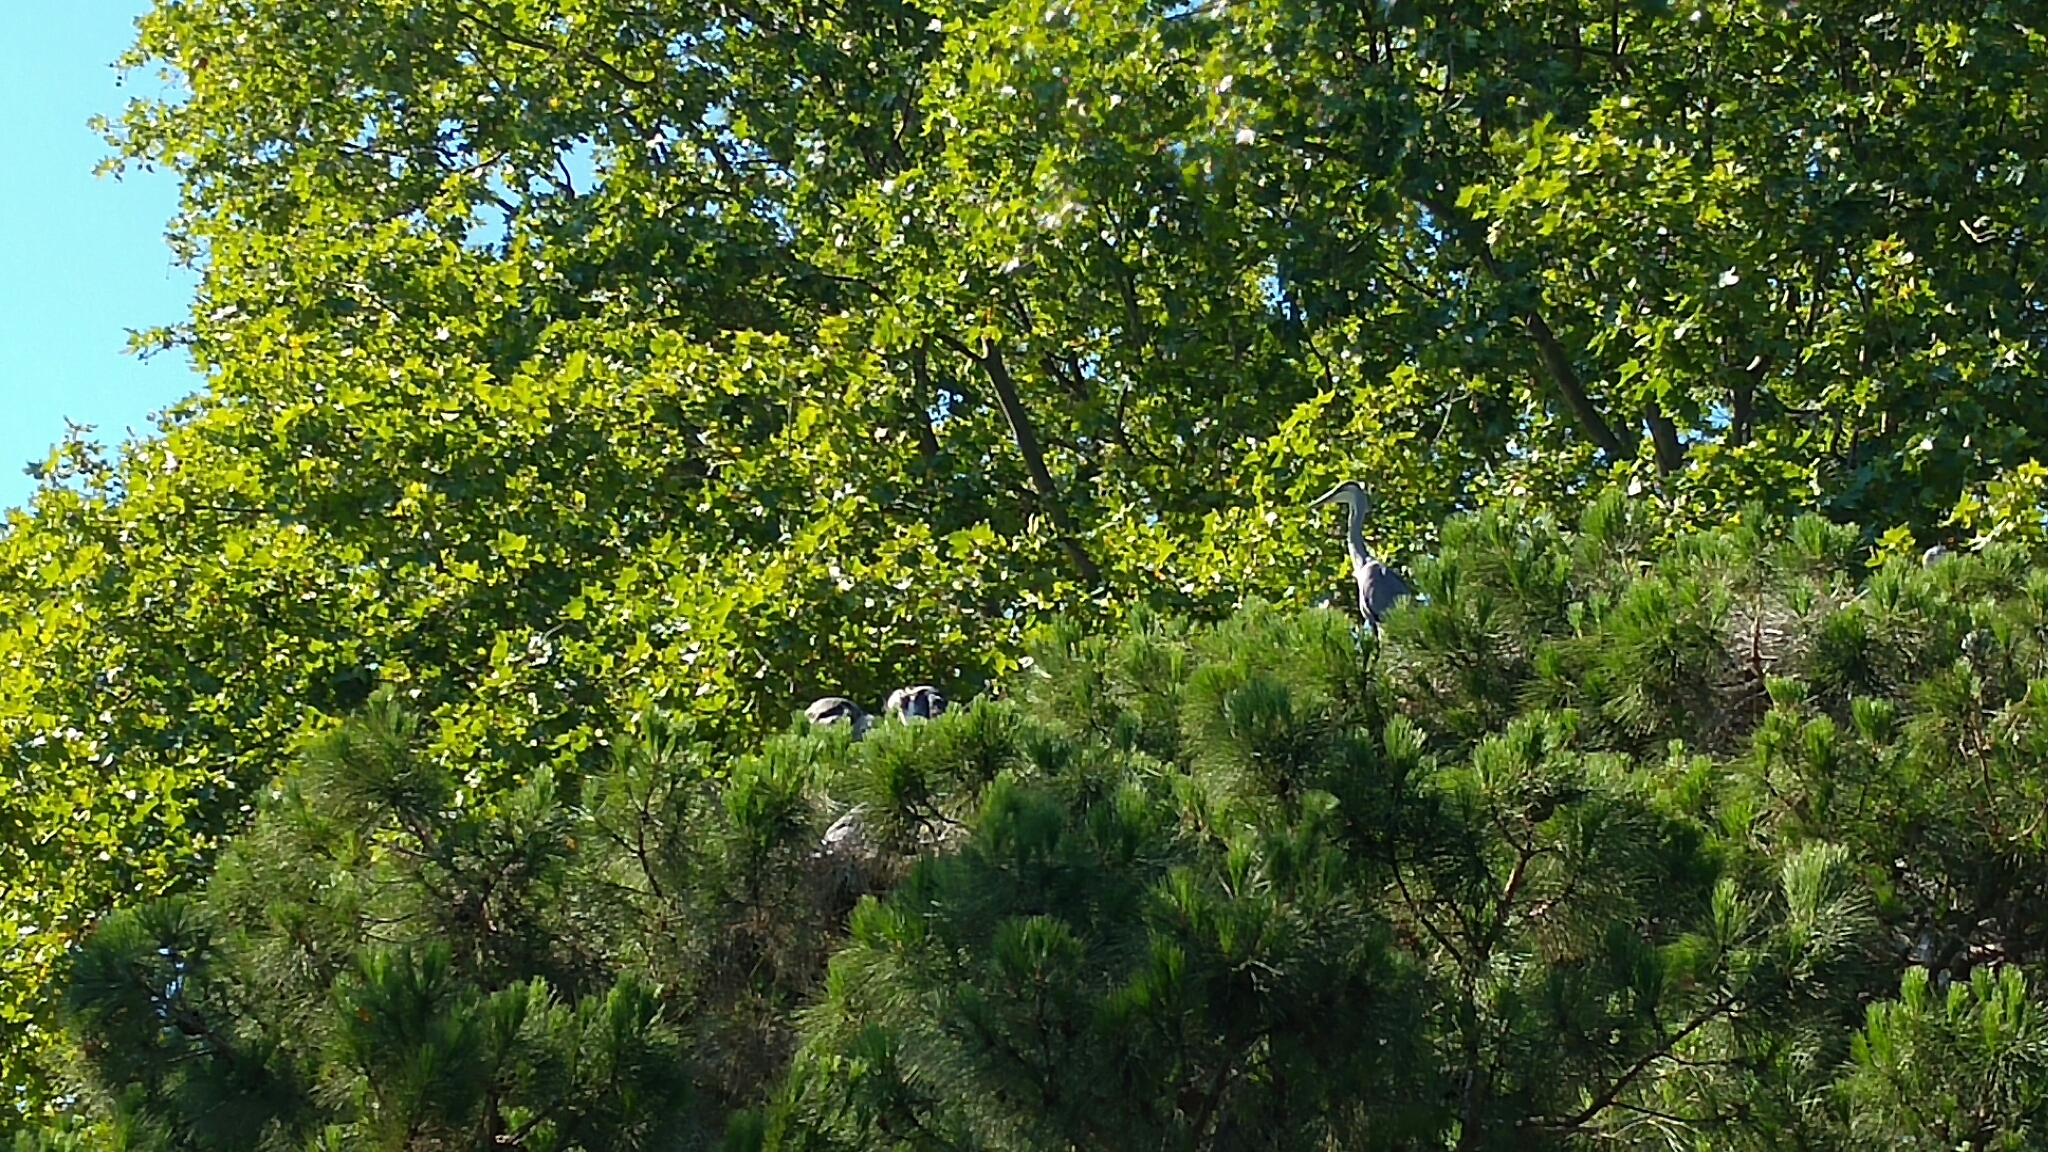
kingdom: Animalia
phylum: Chordata
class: Aves
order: Pelecaniformes
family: Ardeidae
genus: Ardea
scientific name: Ardea cinerea
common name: Grey heron
